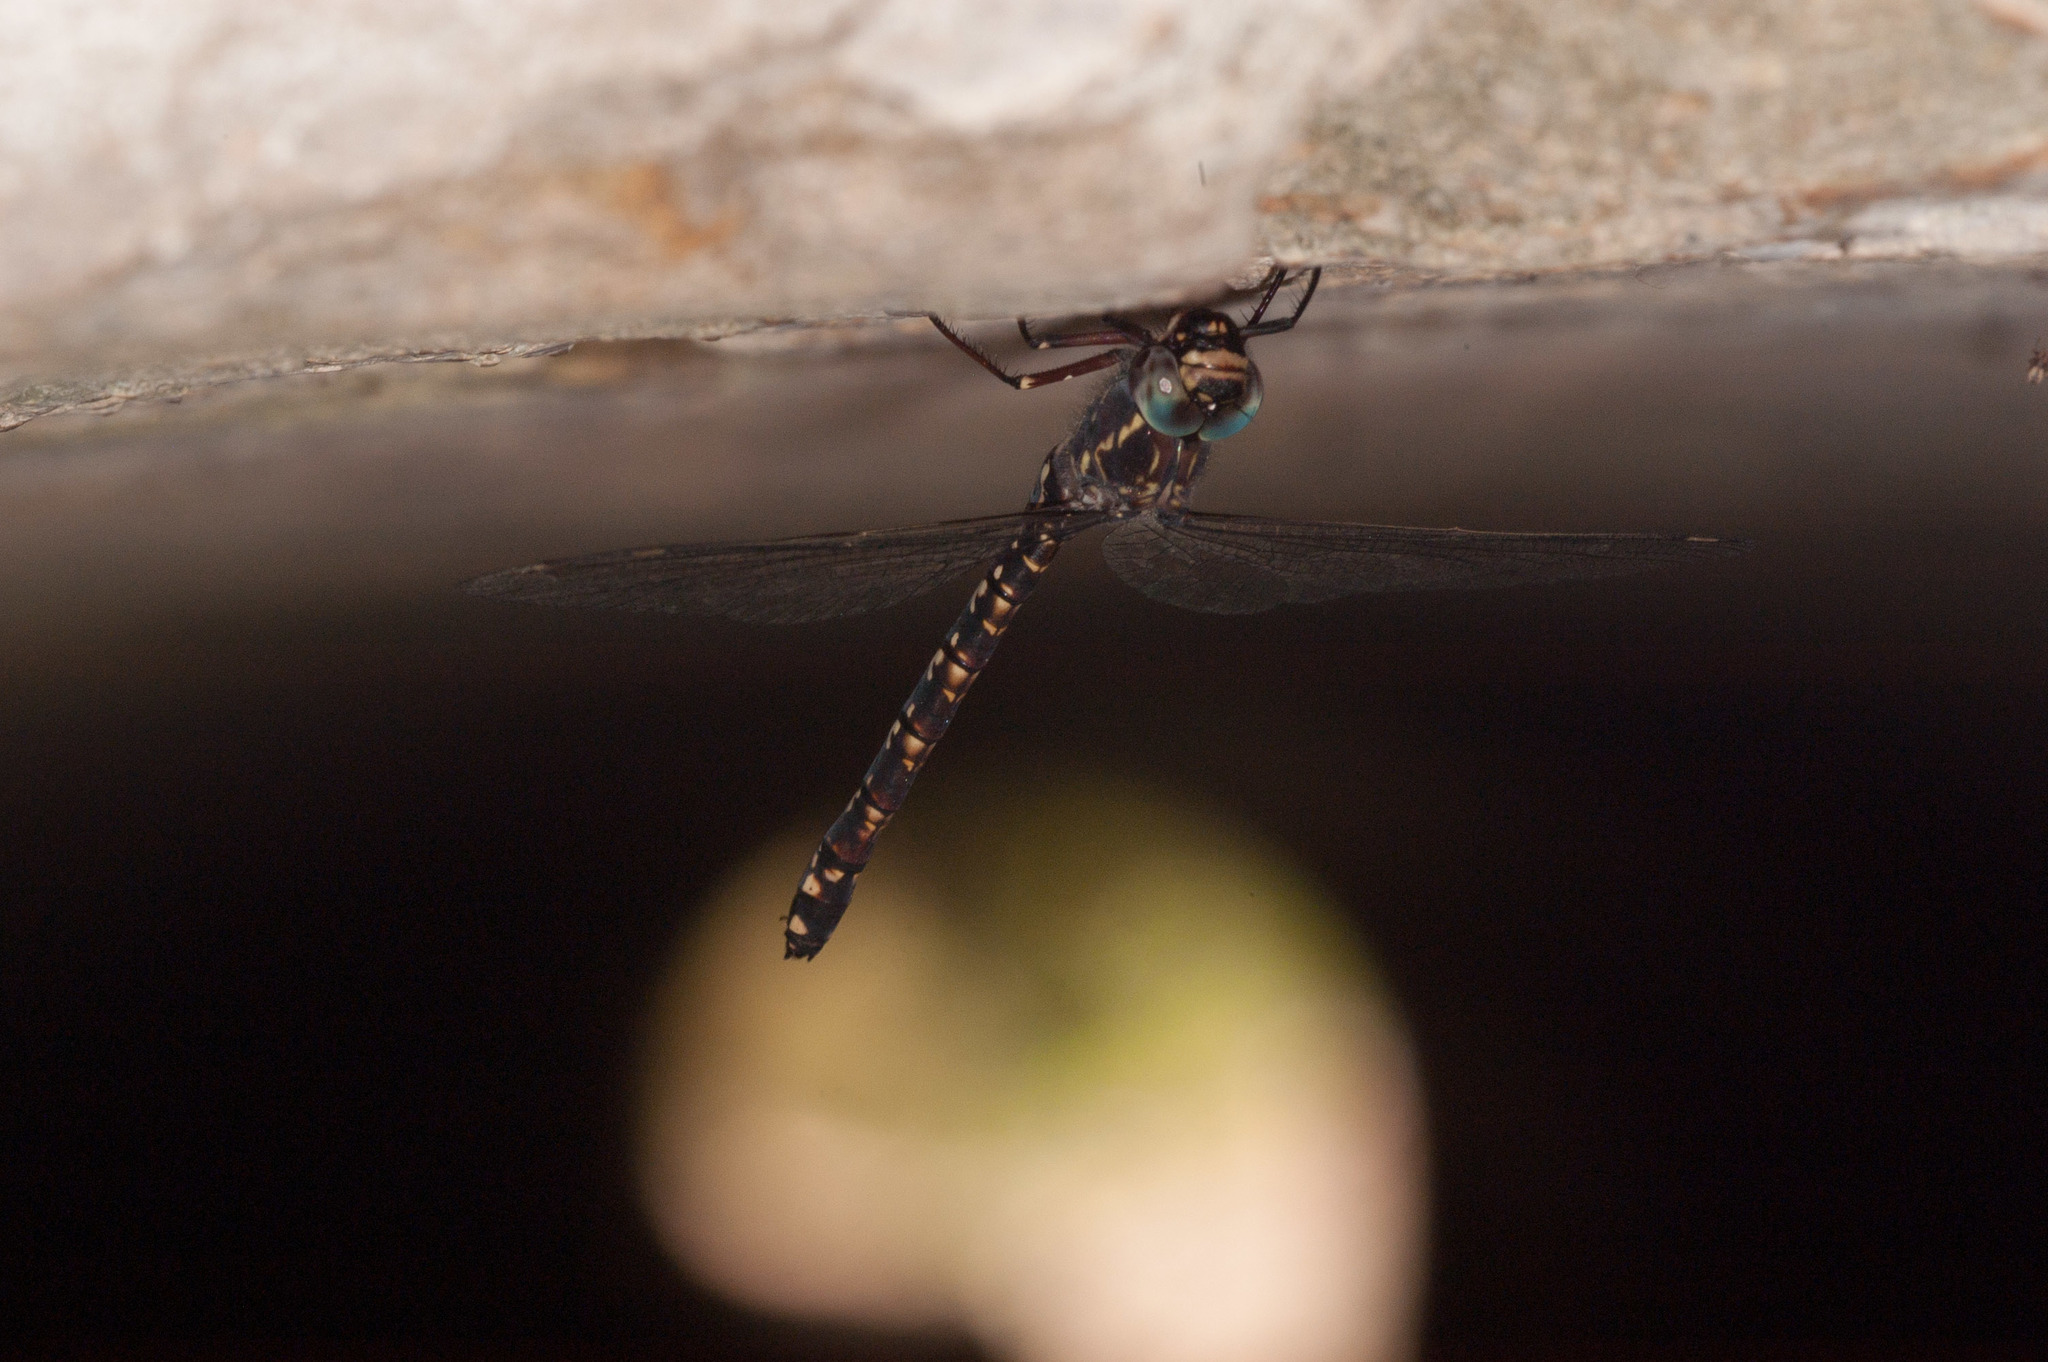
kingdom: Animalia
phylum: Arthropoda
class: Insecta
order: Odonata
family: Aeshnidae
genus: Austroaeschna
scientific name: Austroaeschna parvistigma
